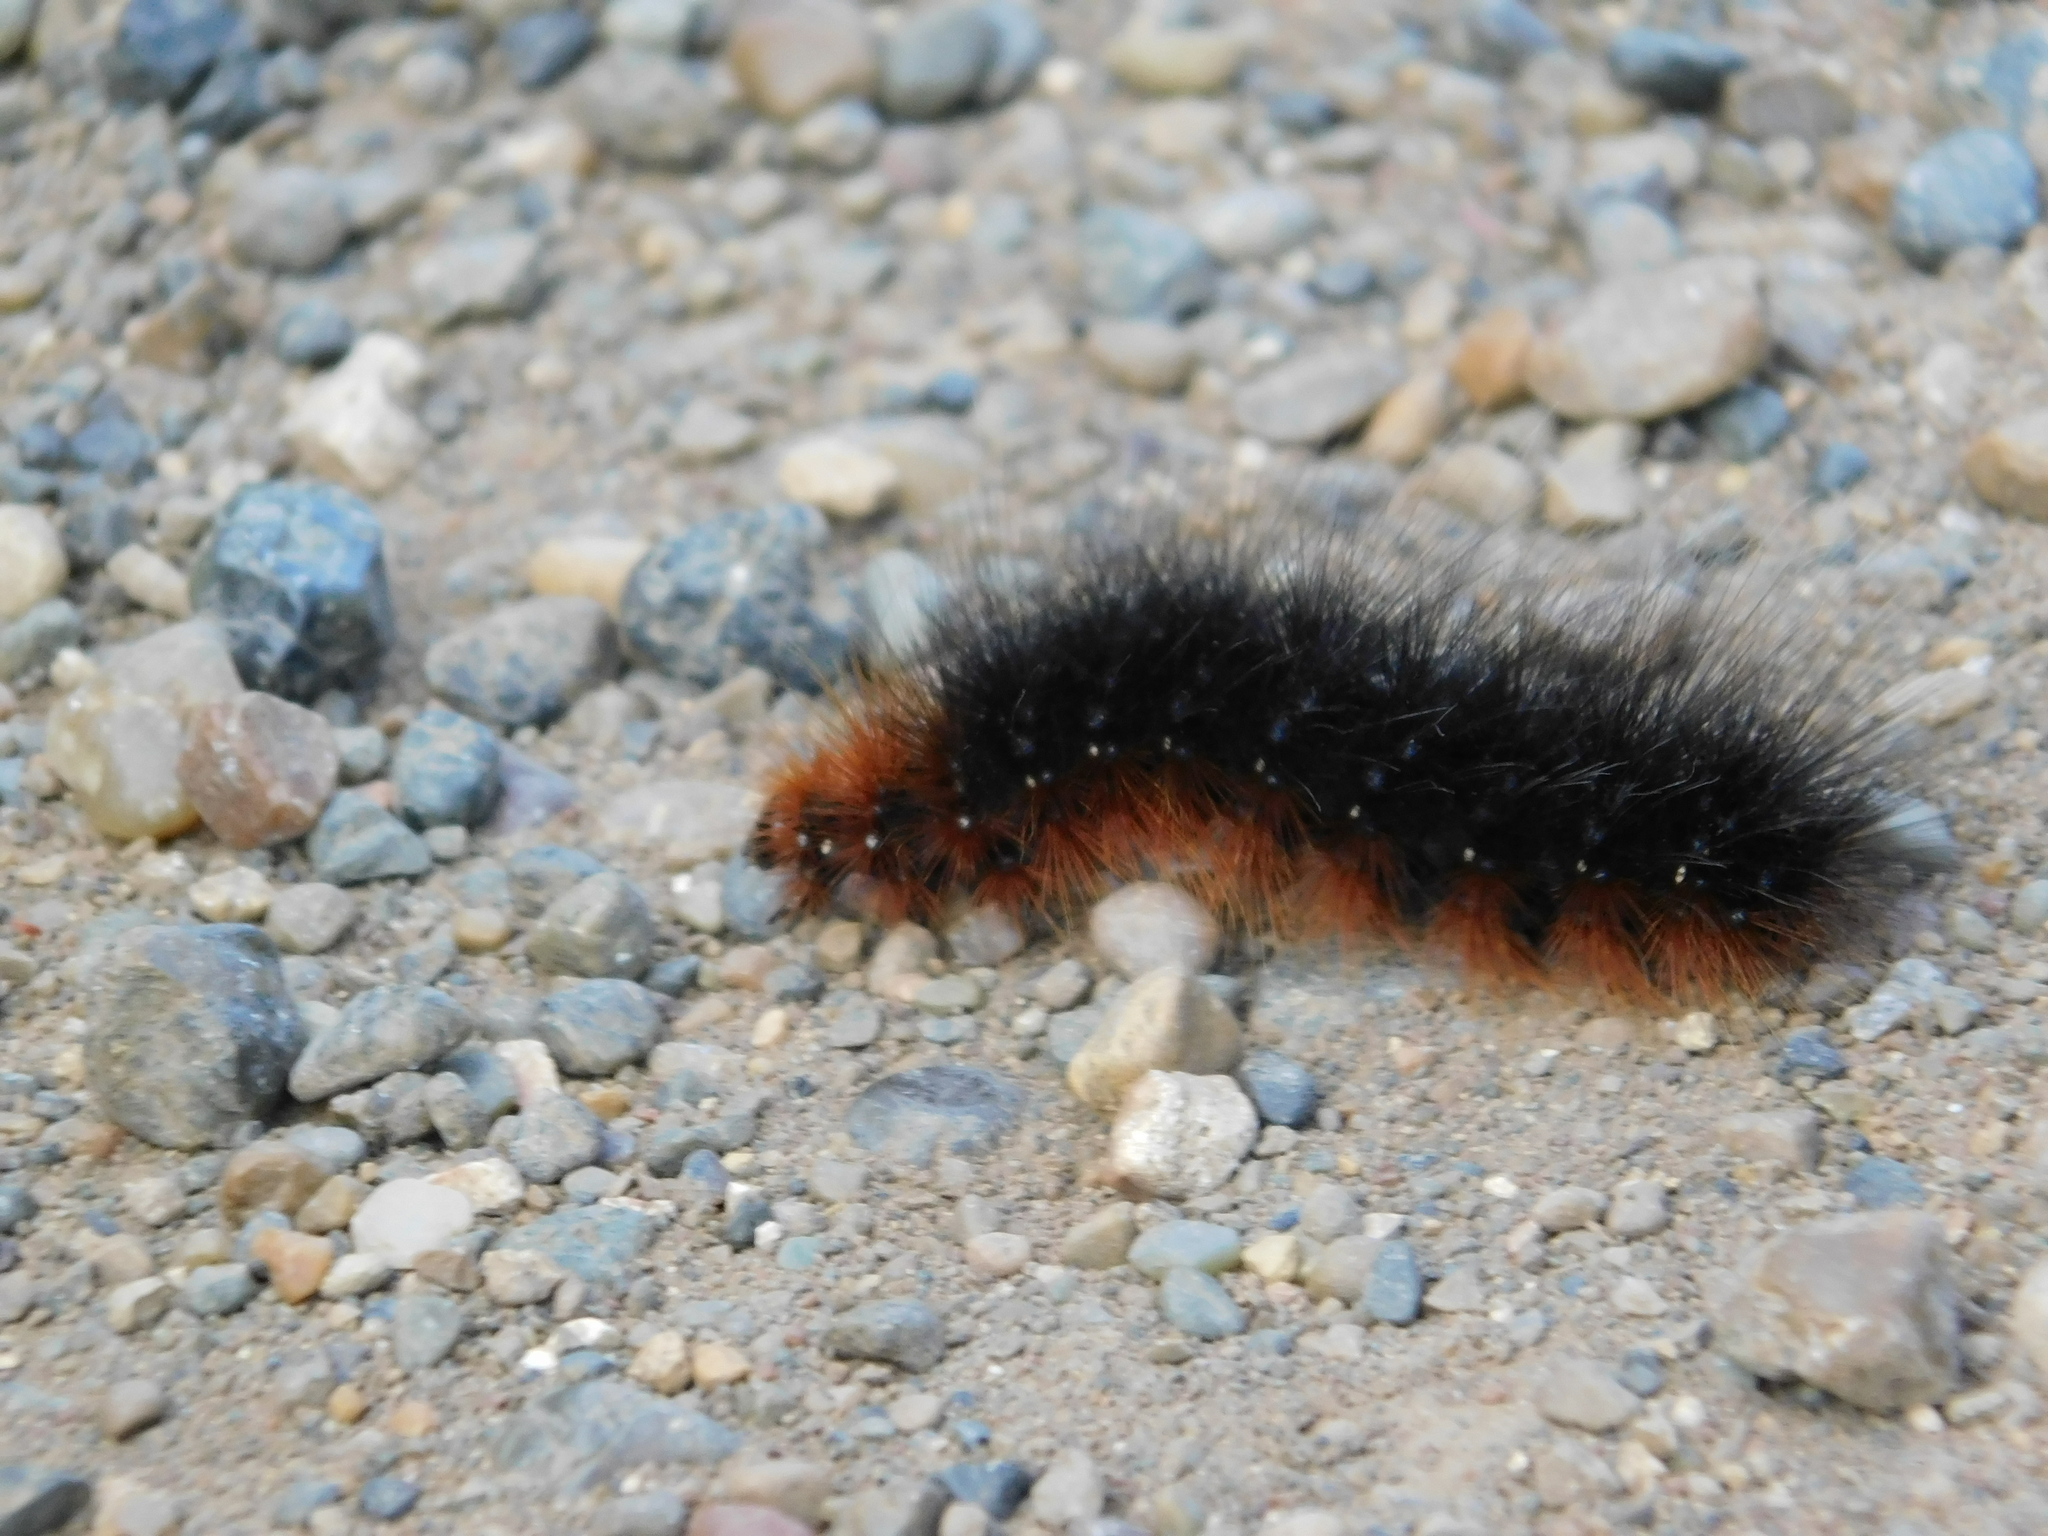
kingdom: Animalia
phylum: Arthropoda
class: Insecta
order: Lepidoptera
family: Erebidae
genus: Arctia
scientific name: Arctia caja
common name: Garden tiger
